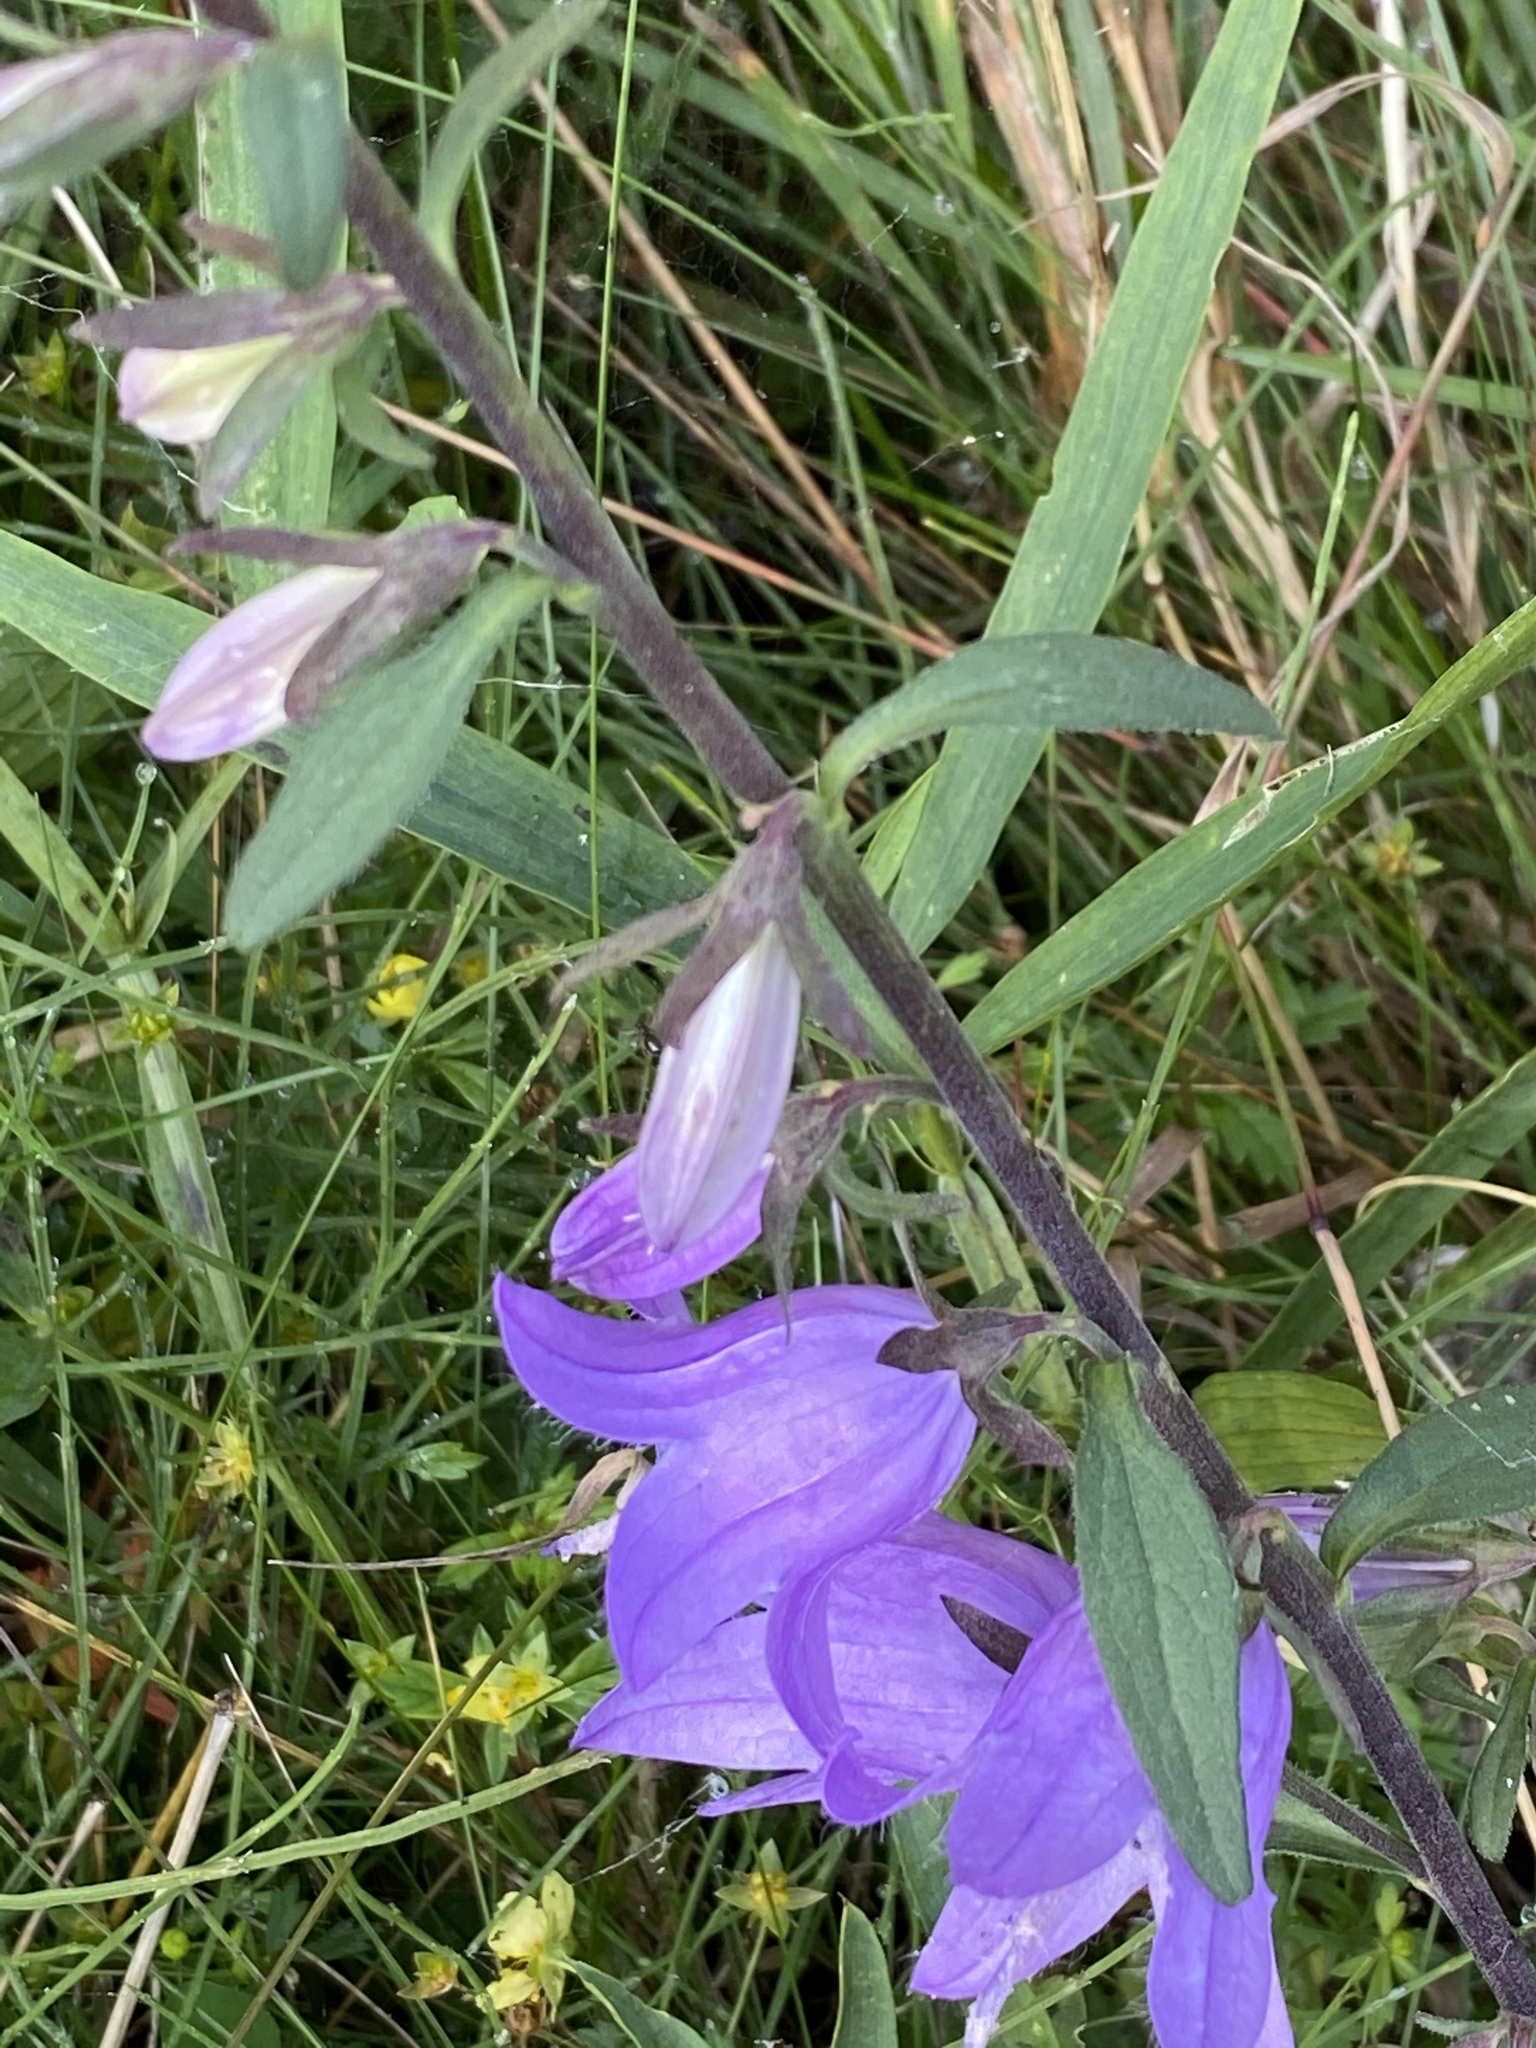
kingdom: Plantae
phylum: Tracheophyta
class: Magnoliopsida
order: Asterales
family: Campanulaceae
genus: Campanula
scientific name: Campanula rapunculoides
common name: Creeping bellflower
